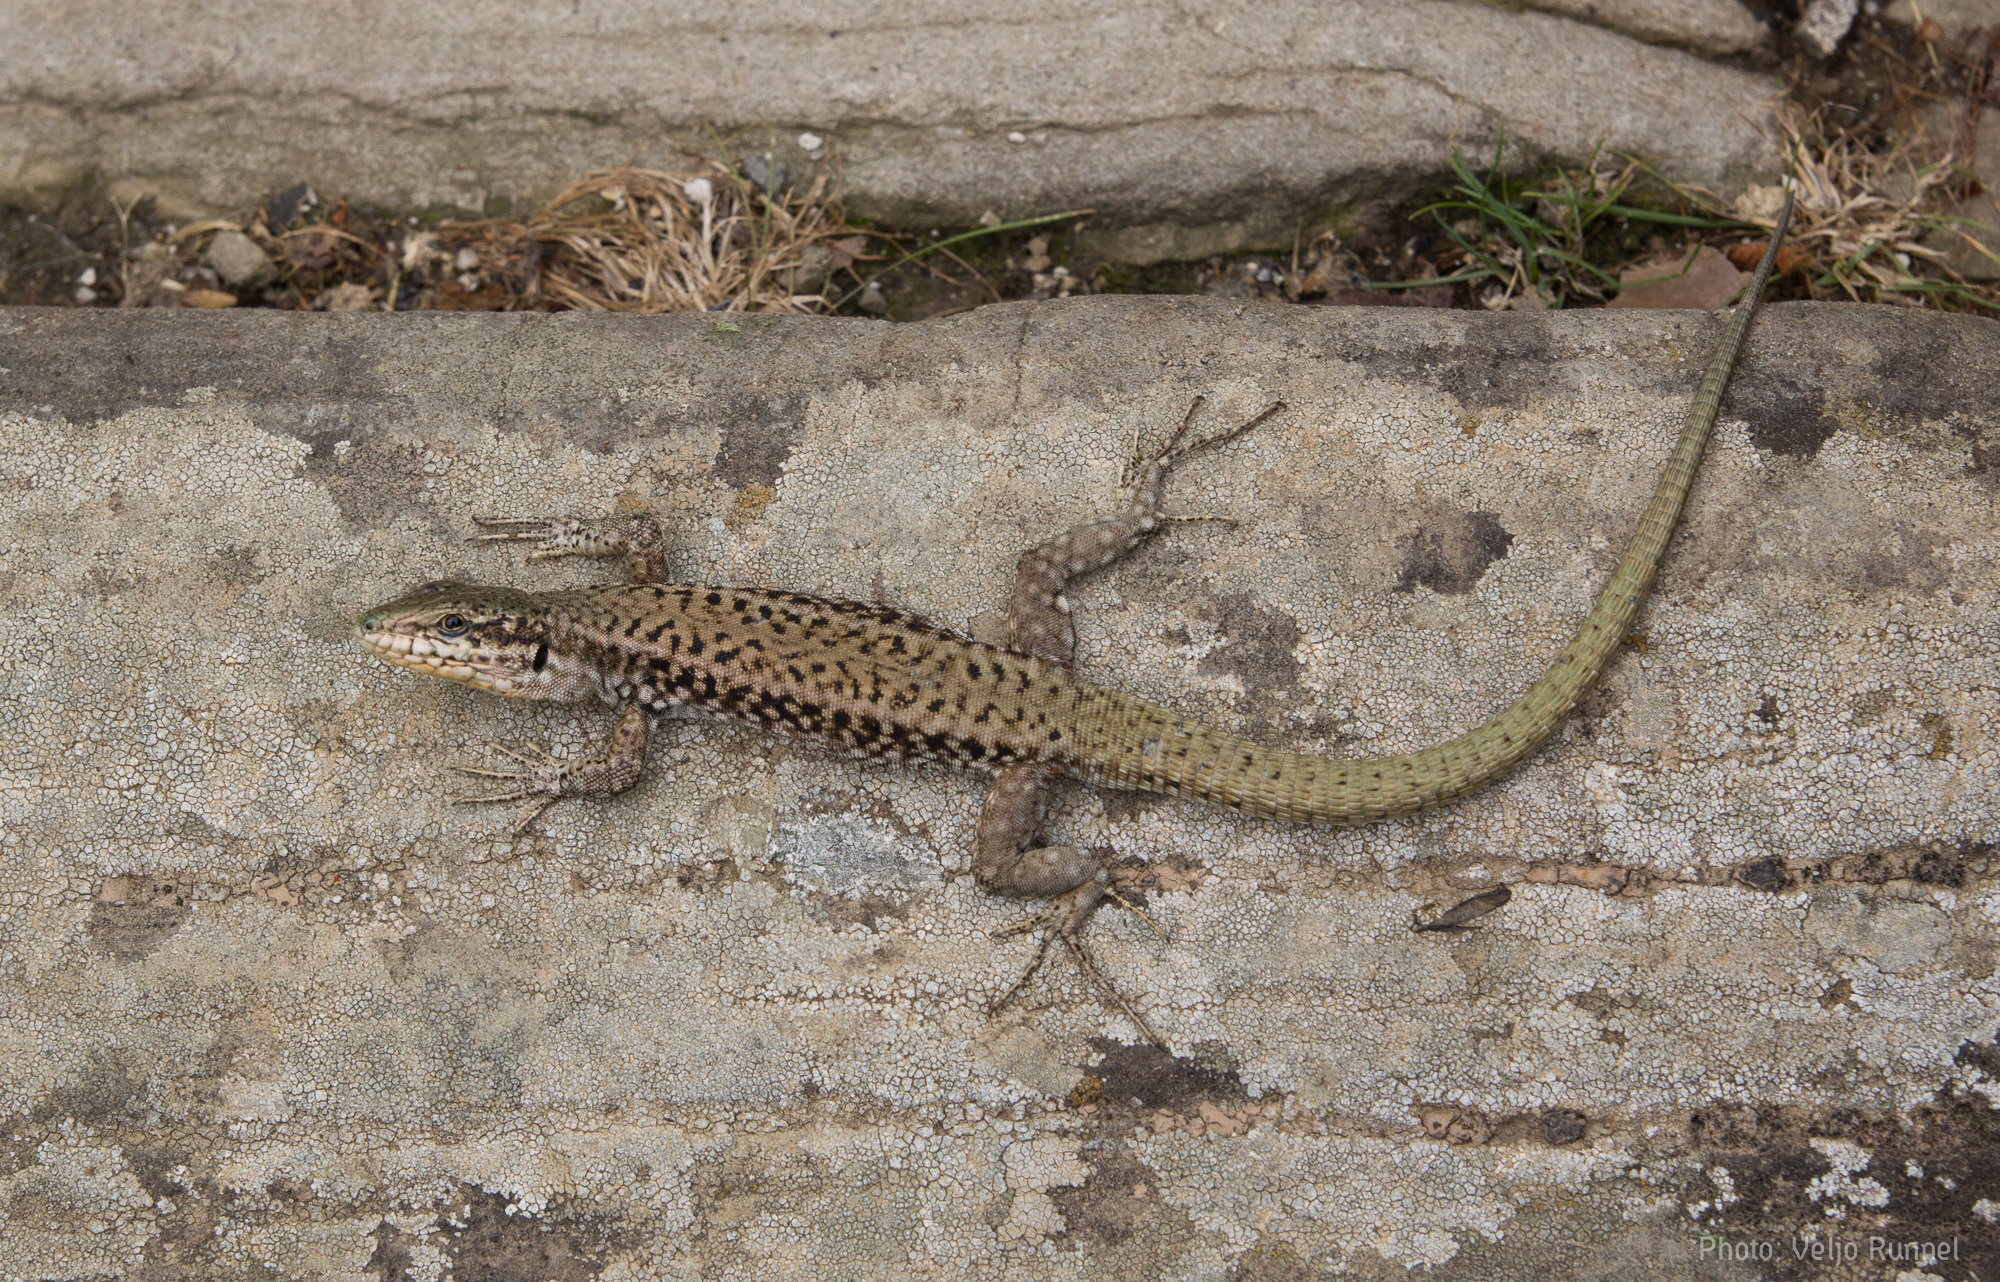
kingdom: Animalia
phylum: Chordata
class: Squamata
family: Lacertidae
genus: Podarcis
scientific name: Podarcis erhardii
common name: Erhard's wall lizard
